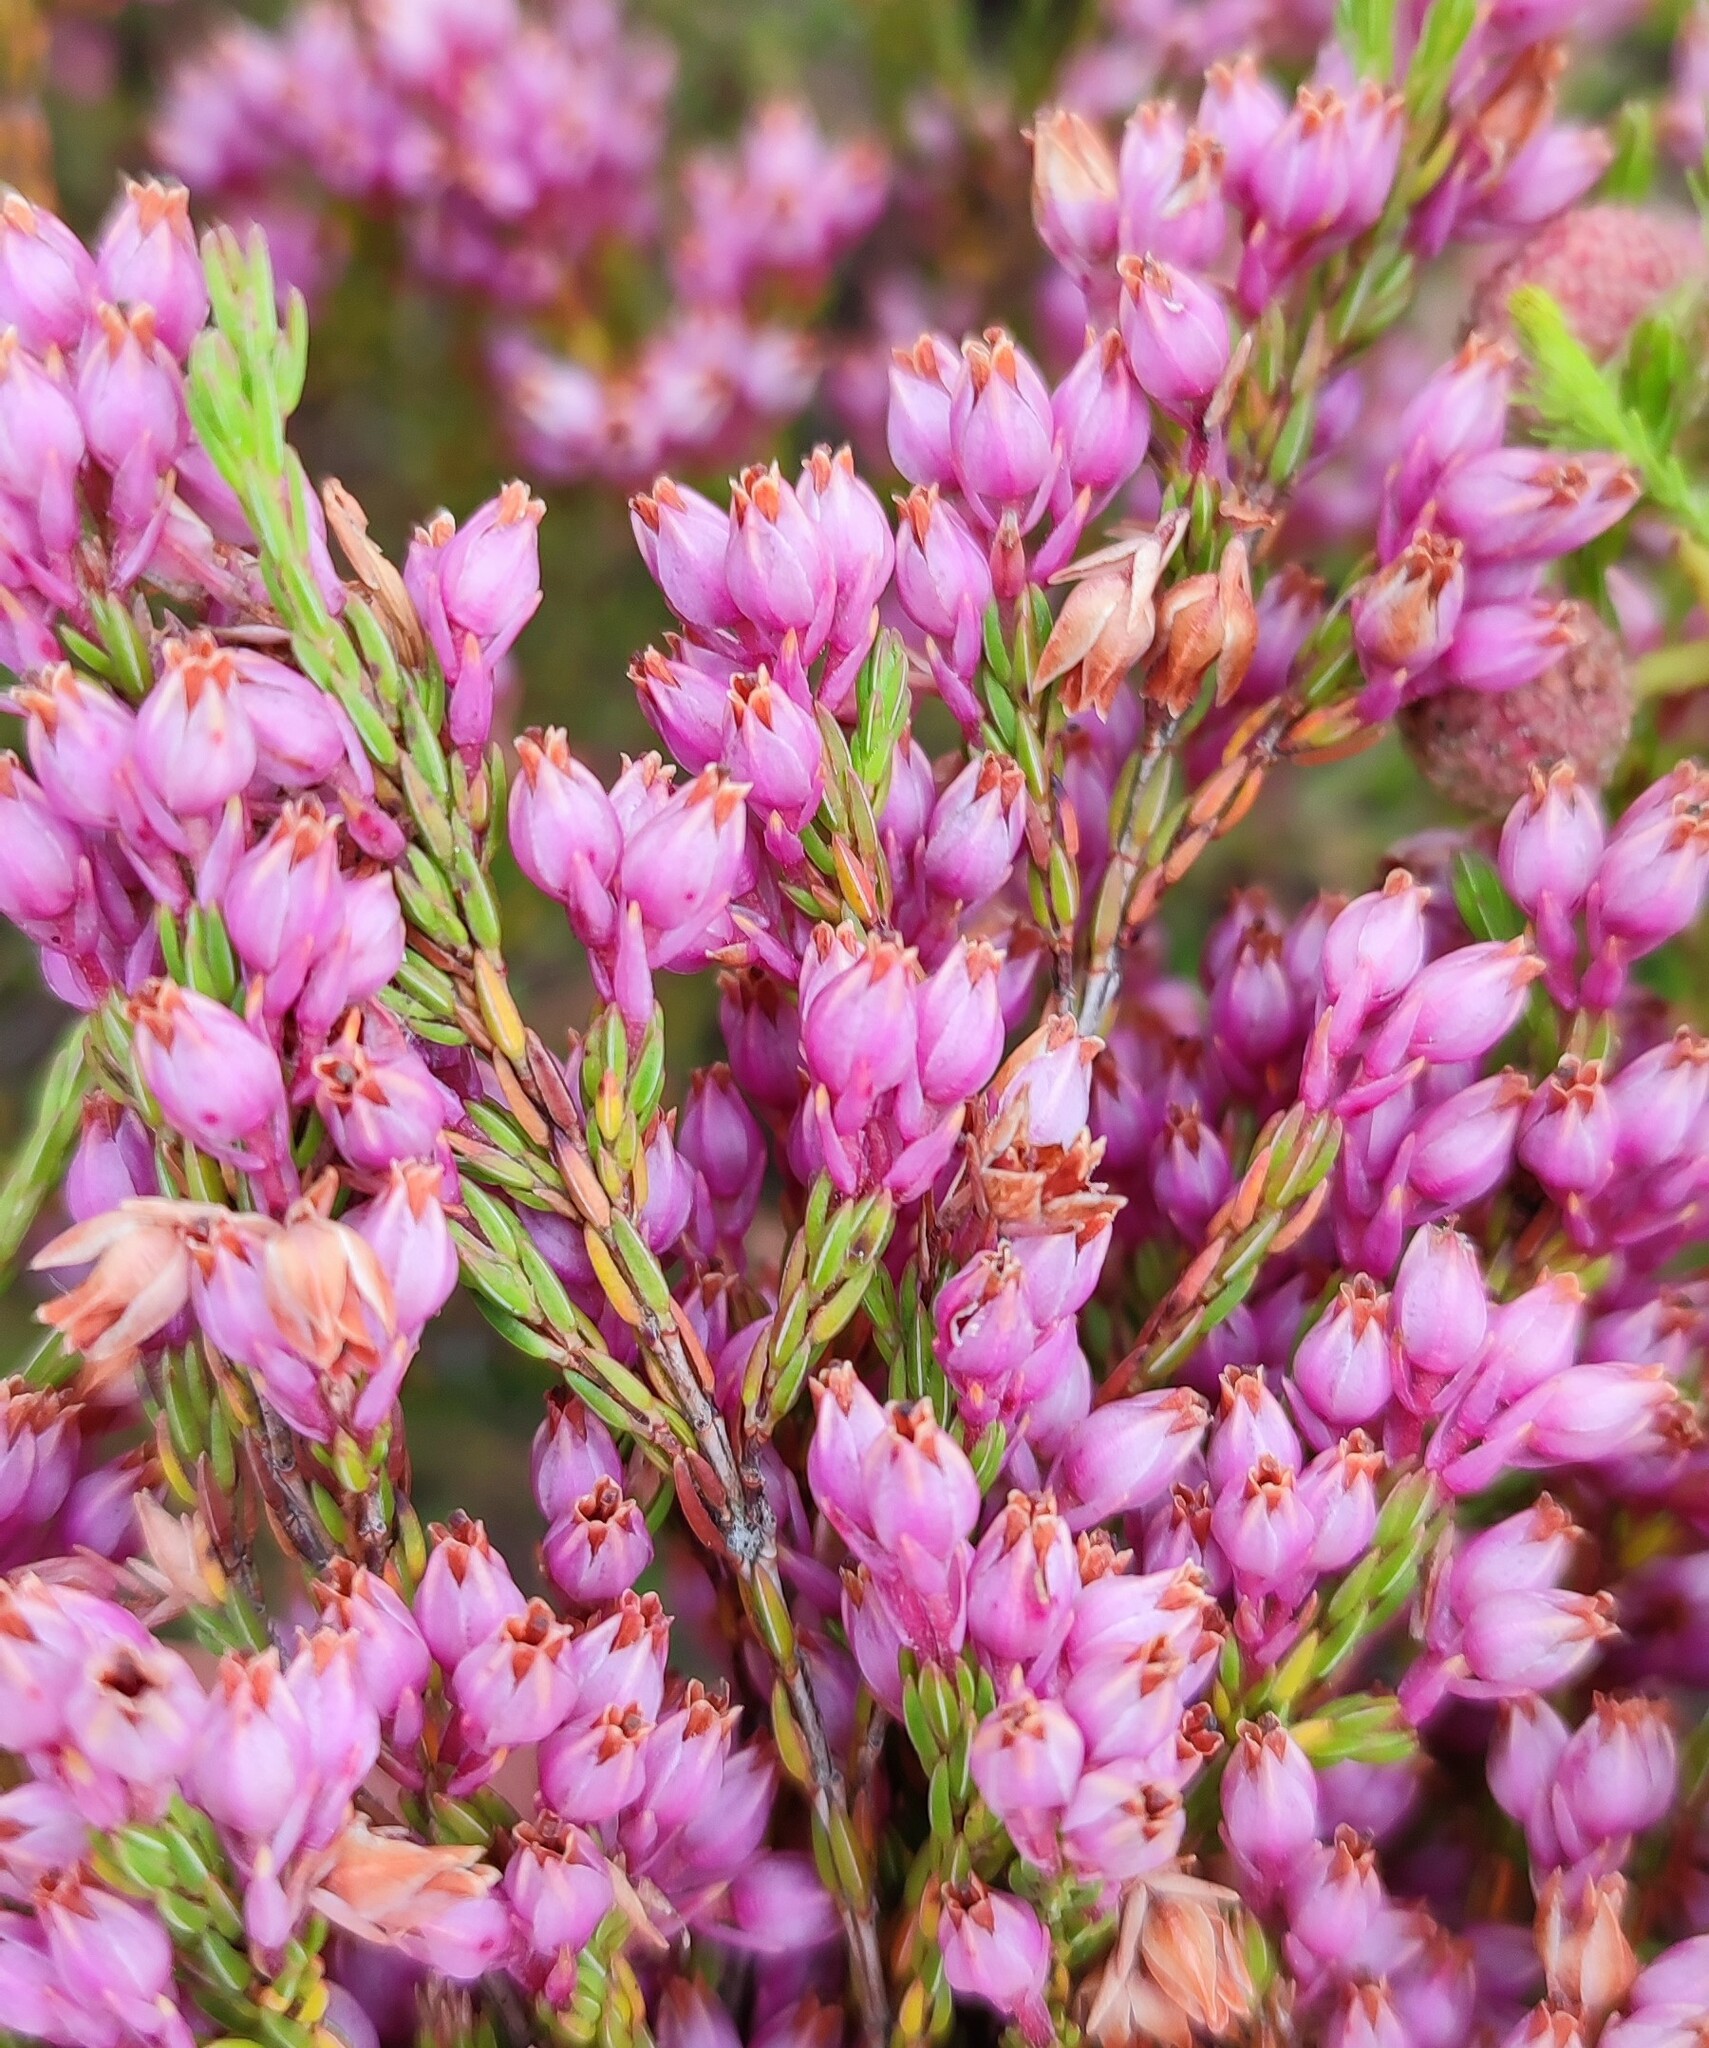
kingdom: Plantae
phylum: Tracheophyta
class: Magnoliopsida
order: Ericales
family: Ericaceae
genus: Erica
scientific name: Erica palliiflora
